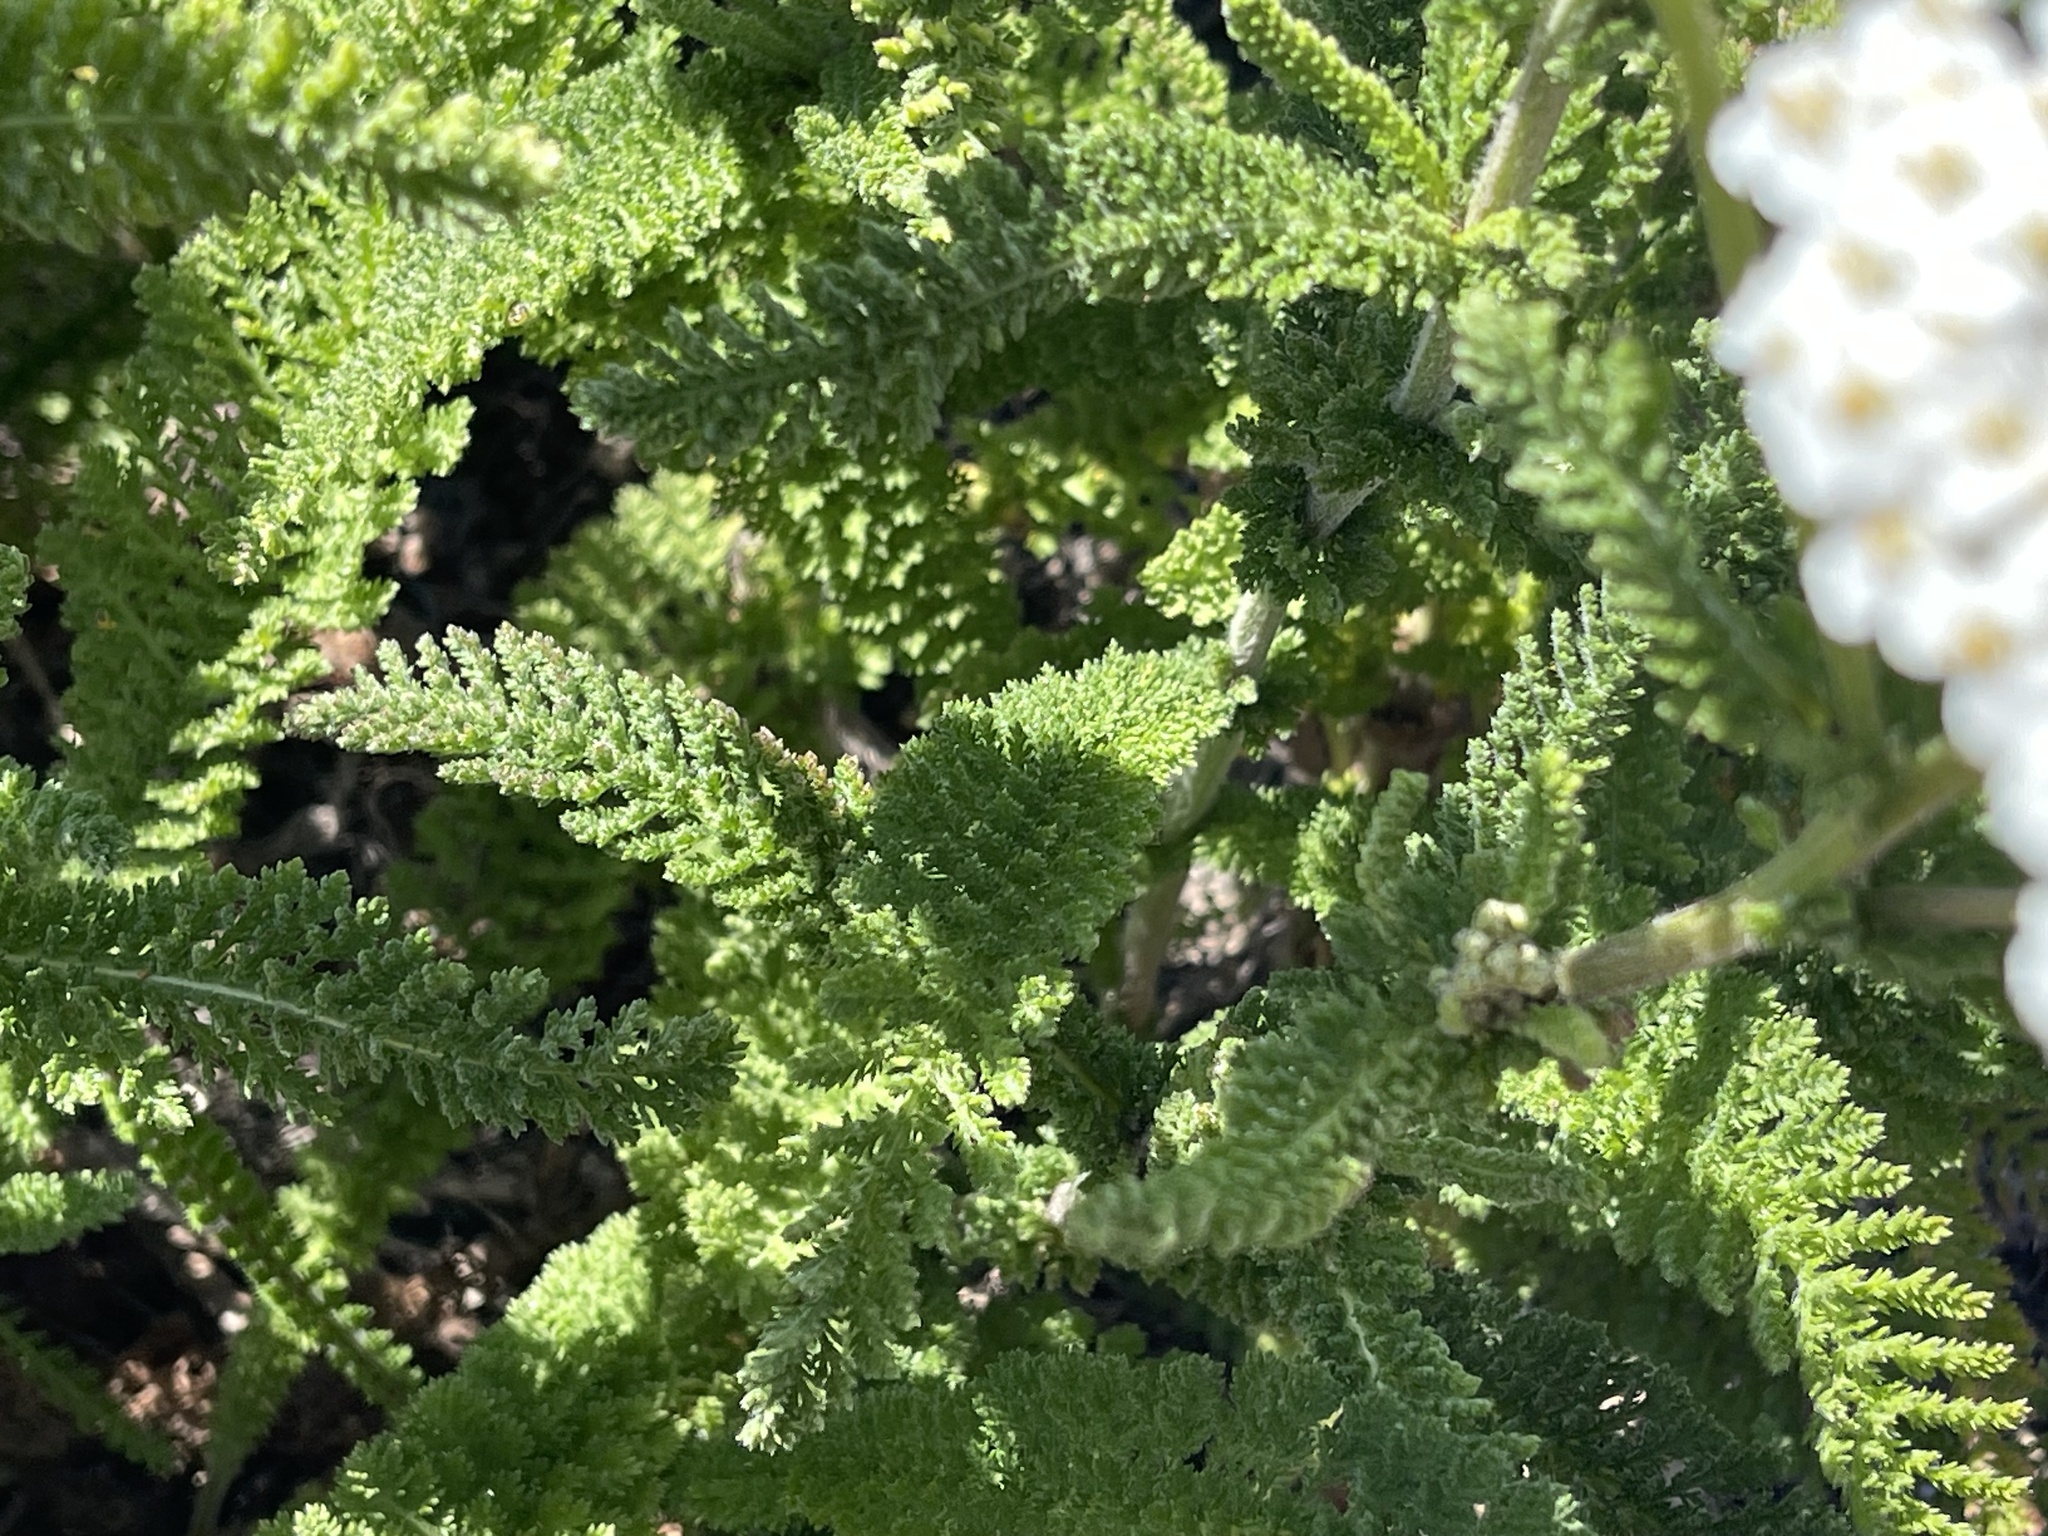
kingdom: Plantae
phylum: Tracheophyta
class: Magnoliopsida
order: Asterales
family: Asteraceae
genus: Achillea
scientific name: Achillea millefolium
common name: Yarrow
